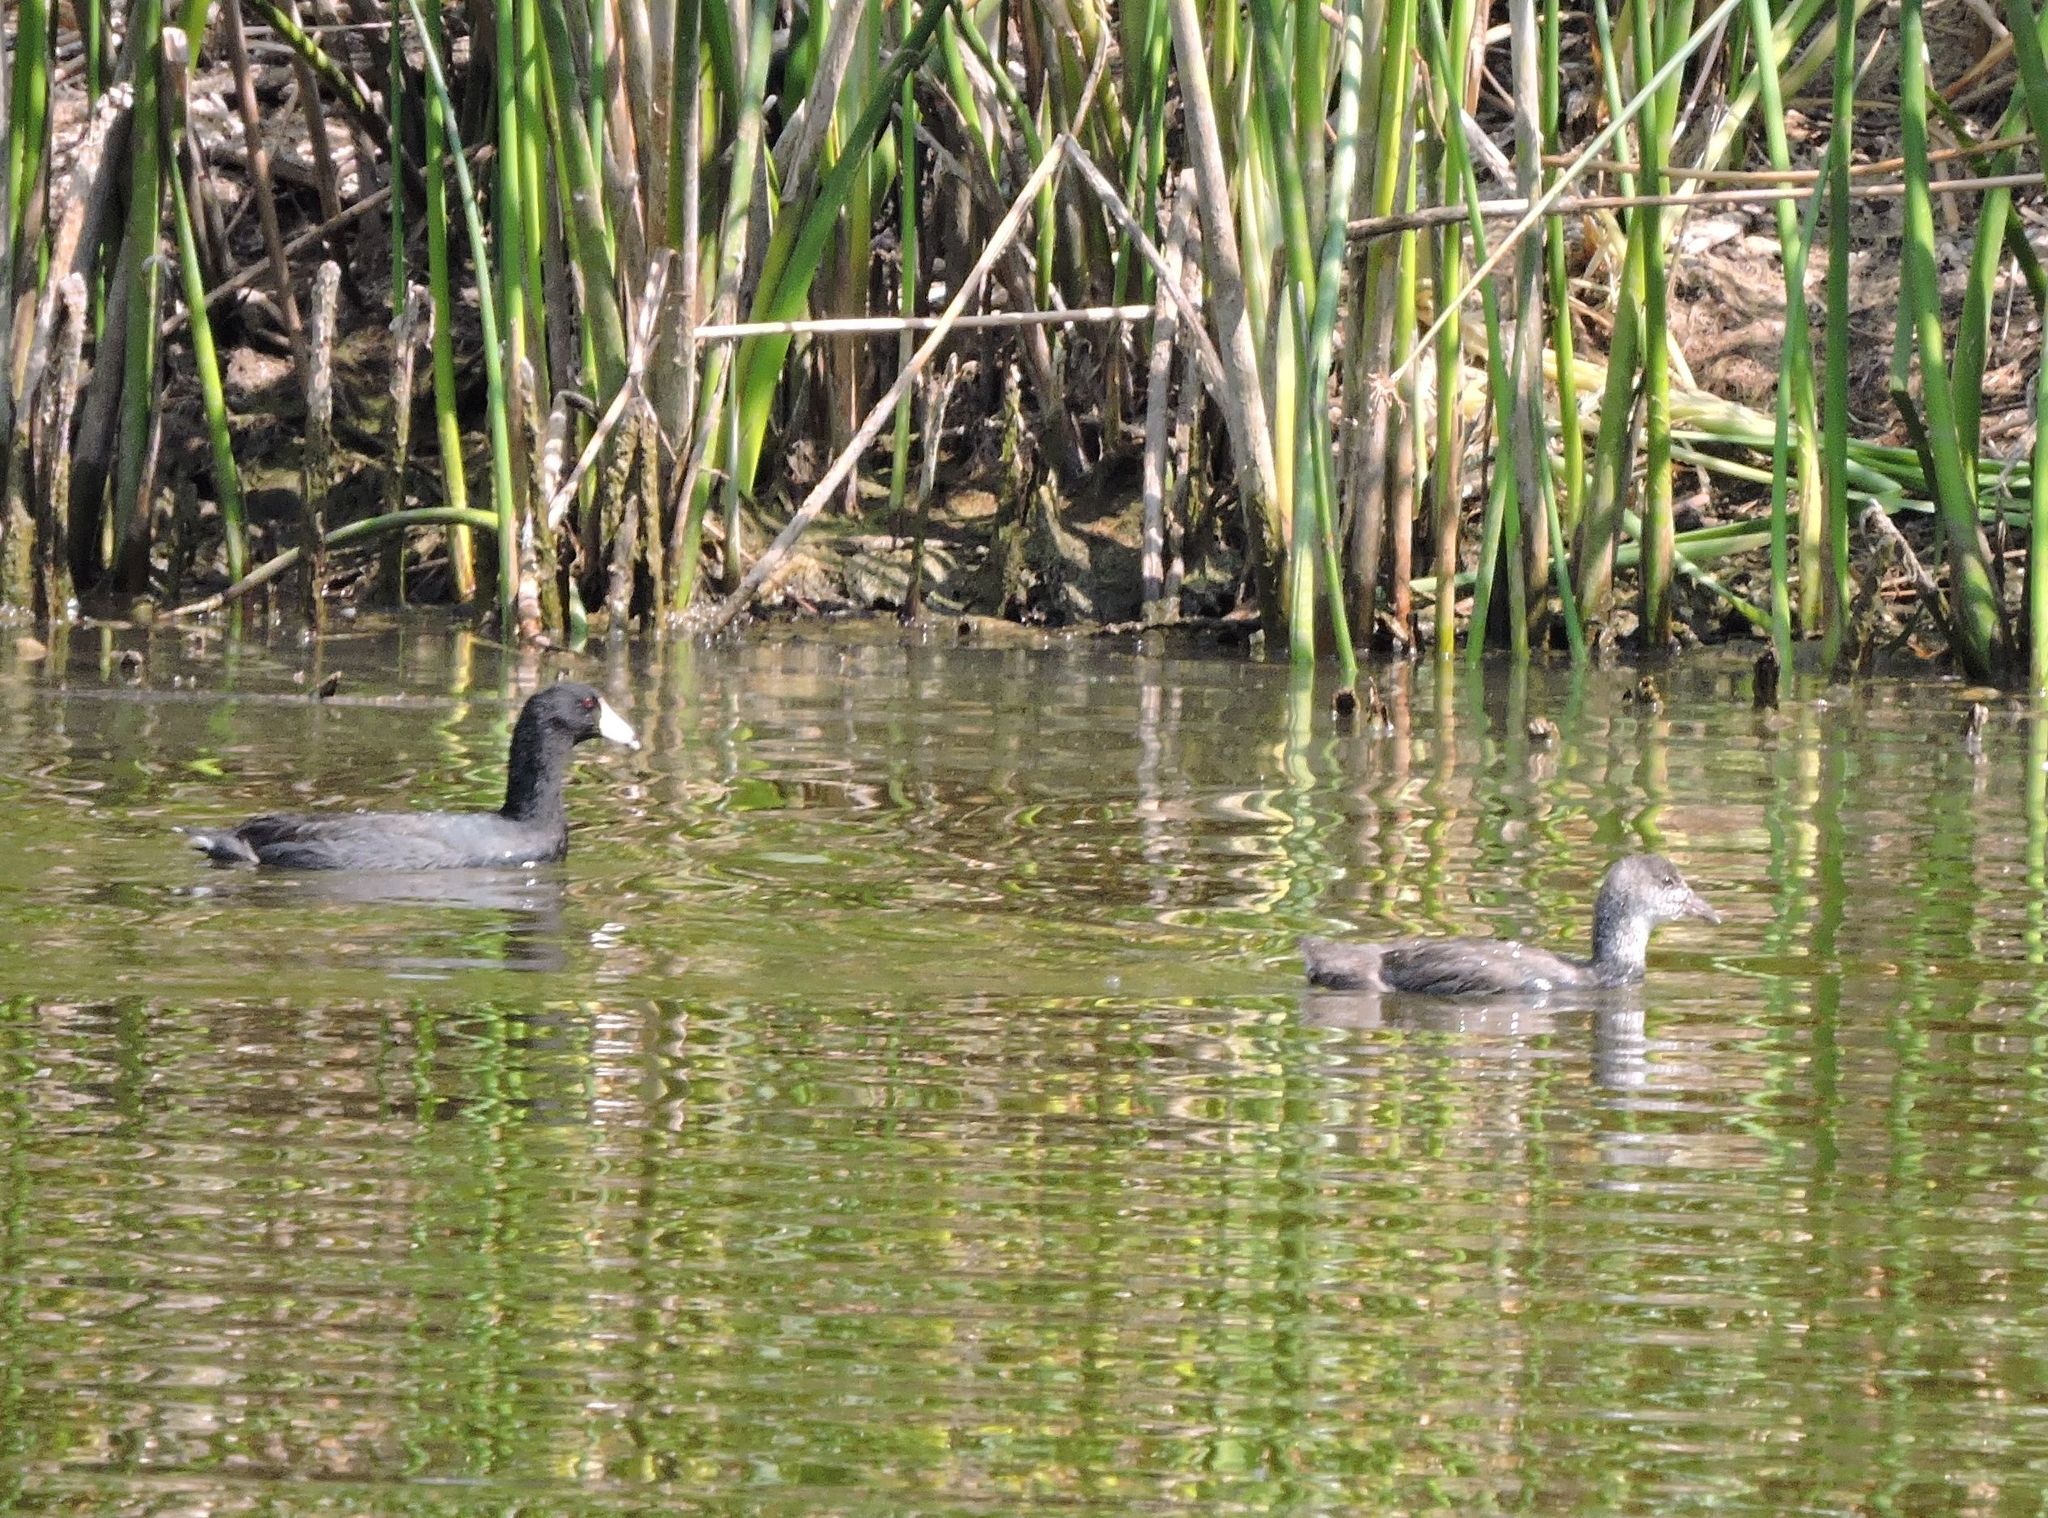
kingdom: Animalia
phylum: Chordata
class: Aves
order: Gruiformes
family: Rallidae
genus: Fulica
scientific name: Fulica americana
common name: American coot
